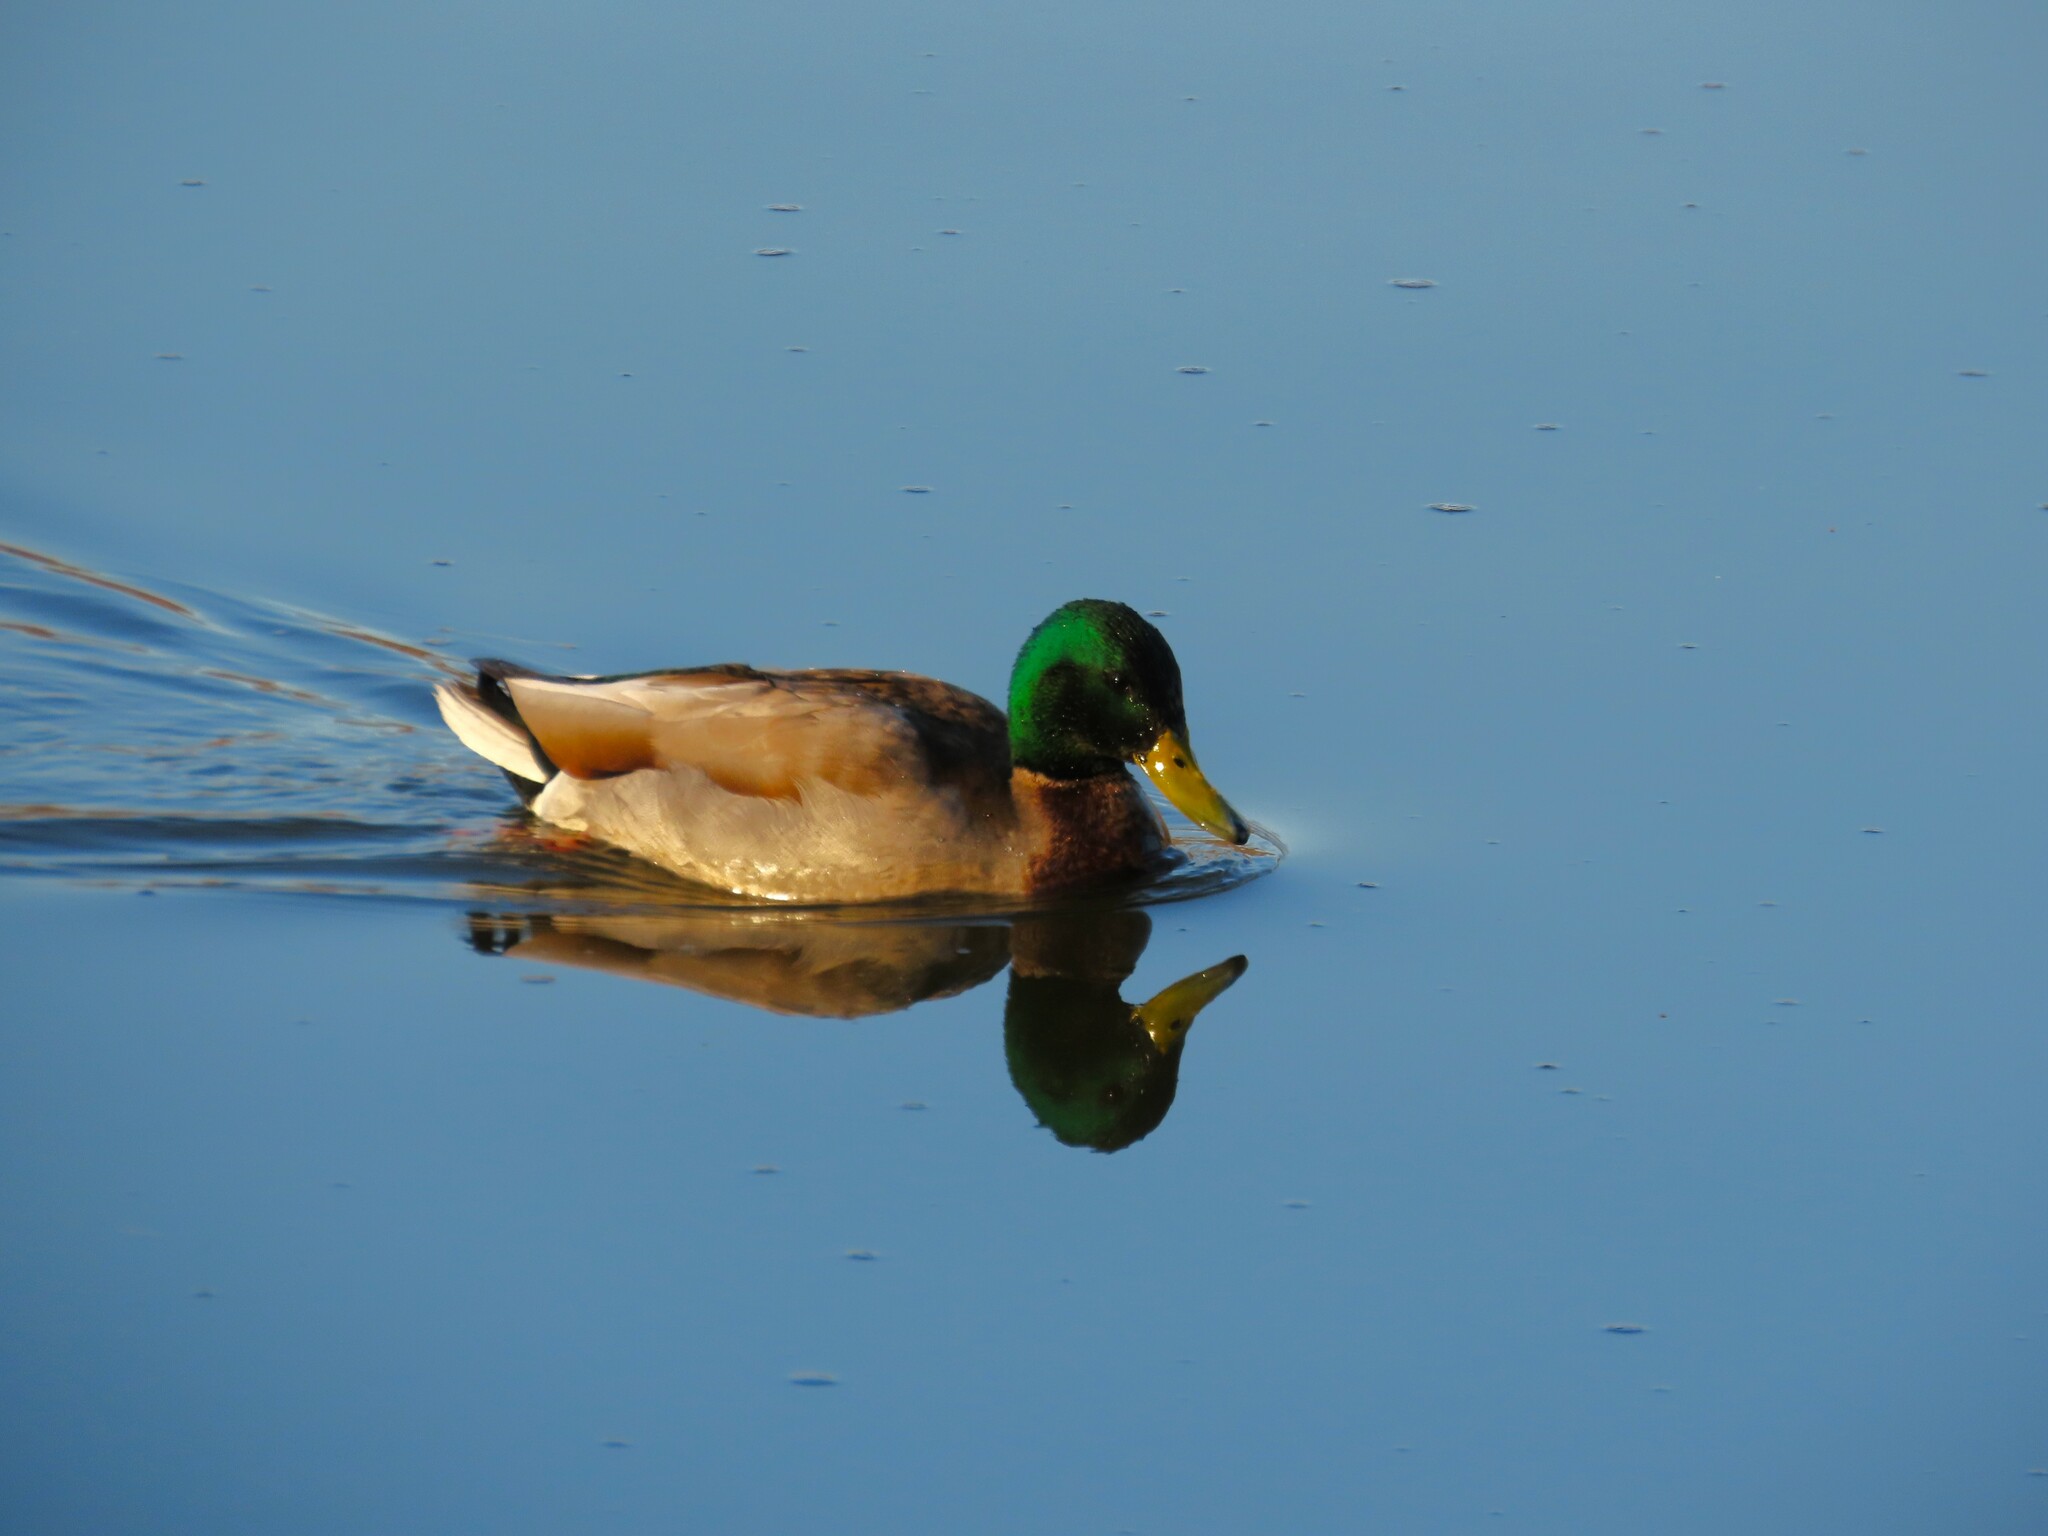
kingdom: Animalia
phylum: Chordata
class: Aves
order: Anseriformes
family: Anatidae
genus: Anas
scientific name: Anas platyrhynchos
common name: Mallard
